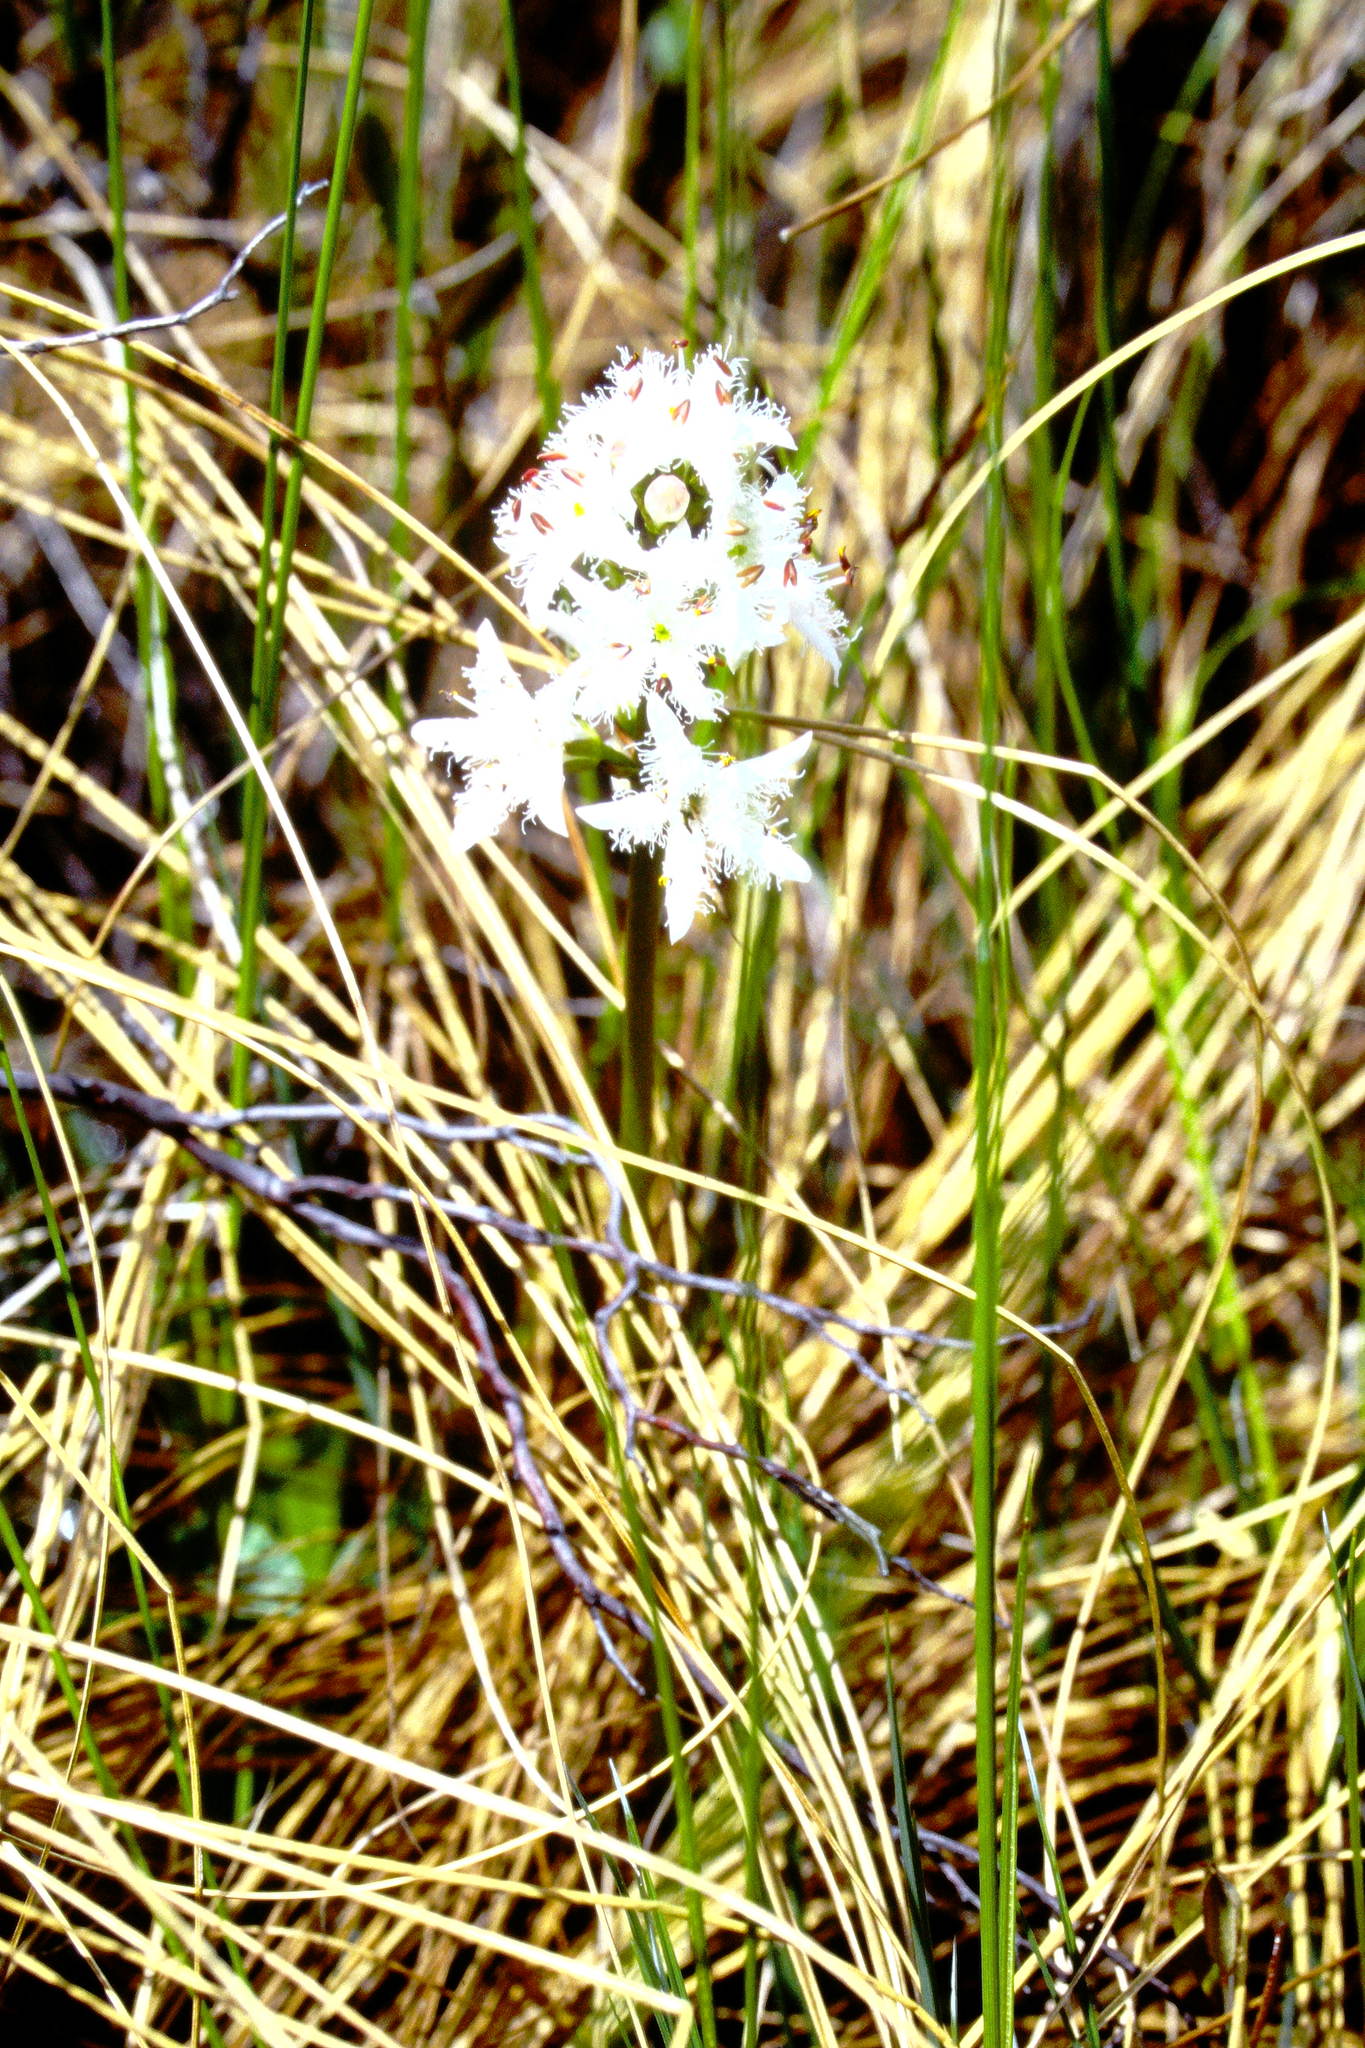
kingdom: Plantae
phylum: Tracheophyta
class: Magnoliopsida
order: Asterales
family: Menyanthaceae
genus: Menyanthes
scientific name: Menyanthes trifoliata
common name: Bogbean
